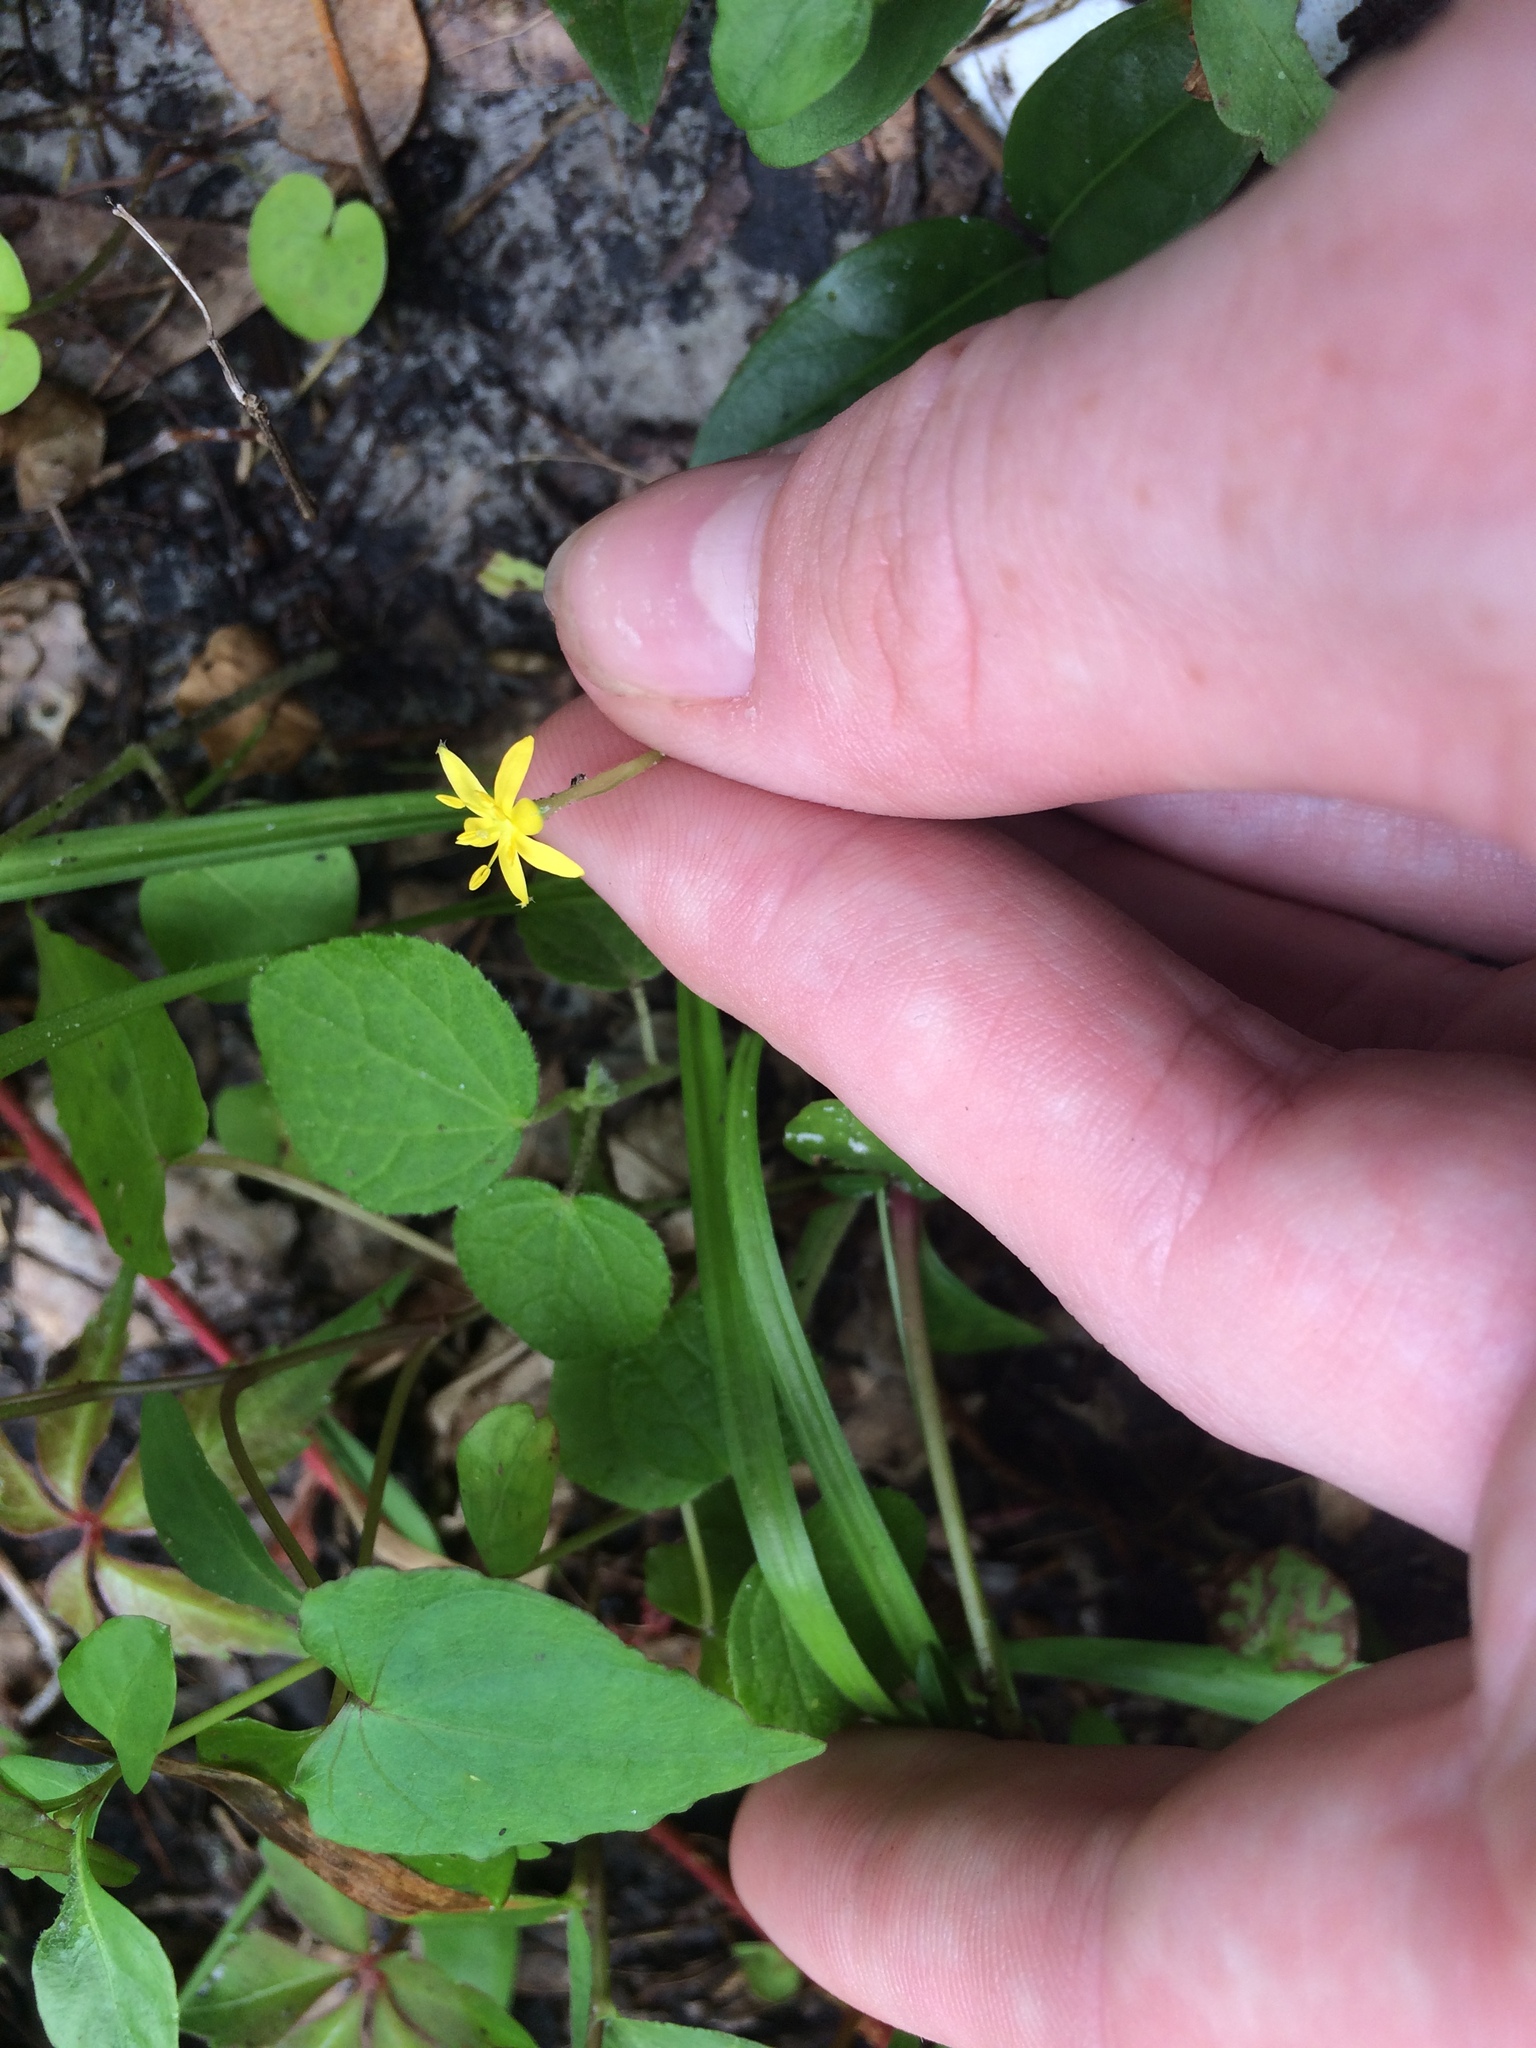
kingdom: Plantae
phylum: Tracheophyta
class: Liliopsida
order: Asparagales
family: Hypoxidaceae
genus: Hypoxis
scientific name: Hypoxis curtissii
